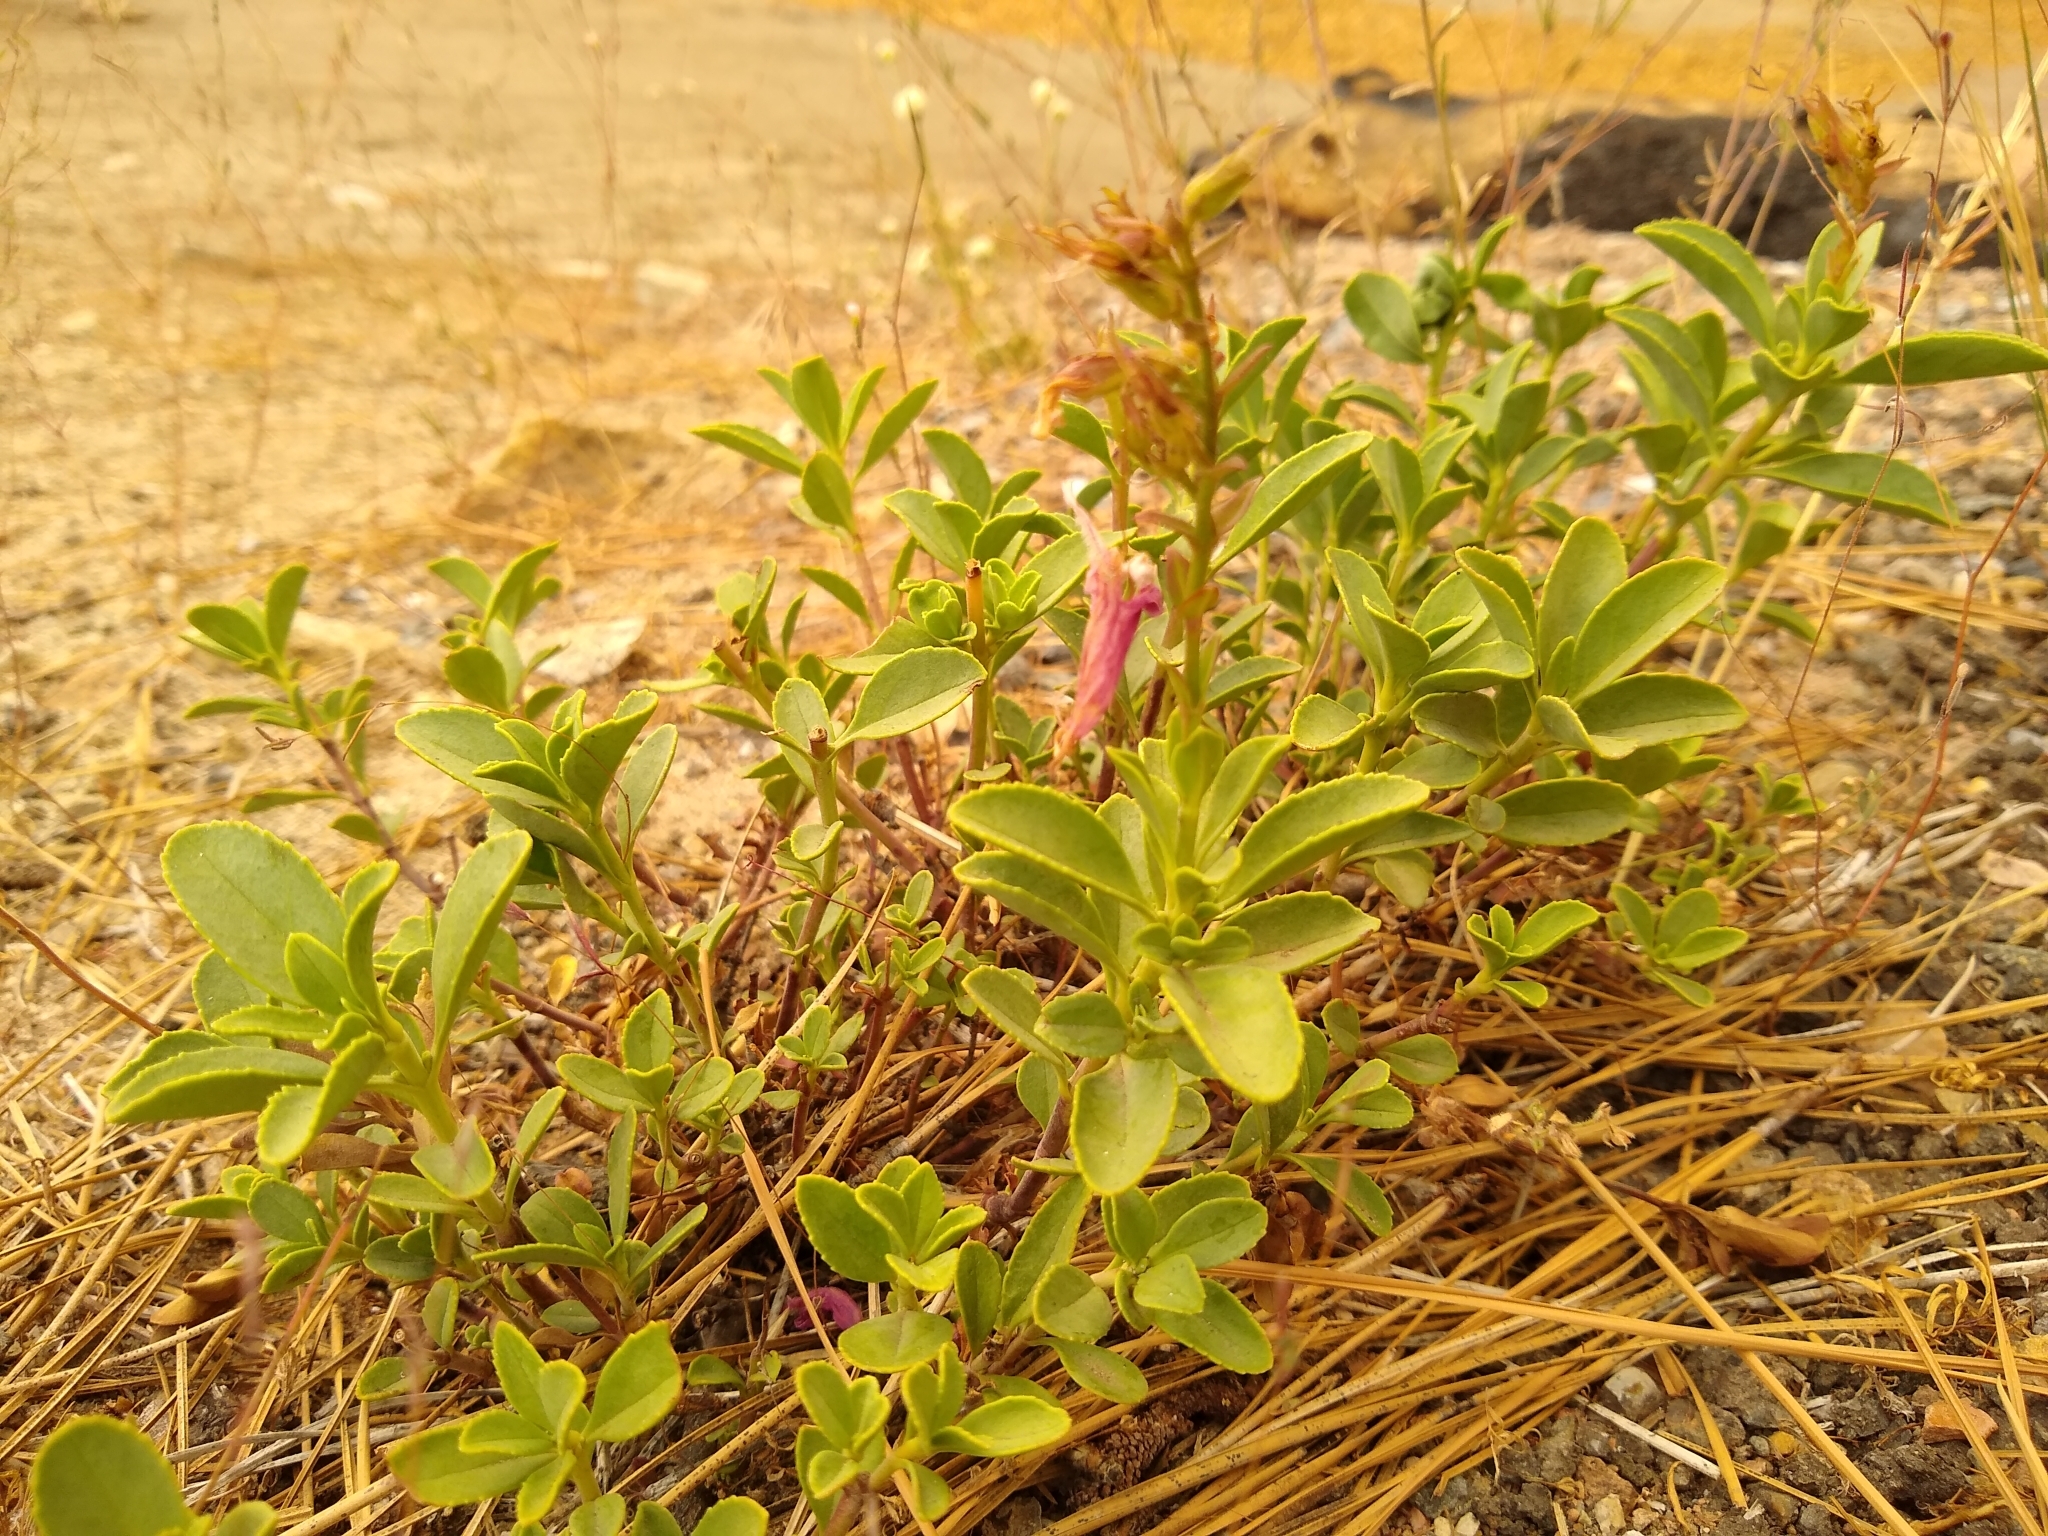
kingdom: Plantae
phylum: Tracheophyta
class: Magnoliopsida
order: Lamiales
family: Plantaginaceae
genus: Penstemon
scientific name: Penstemon newberryi
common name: Mountain-pride
